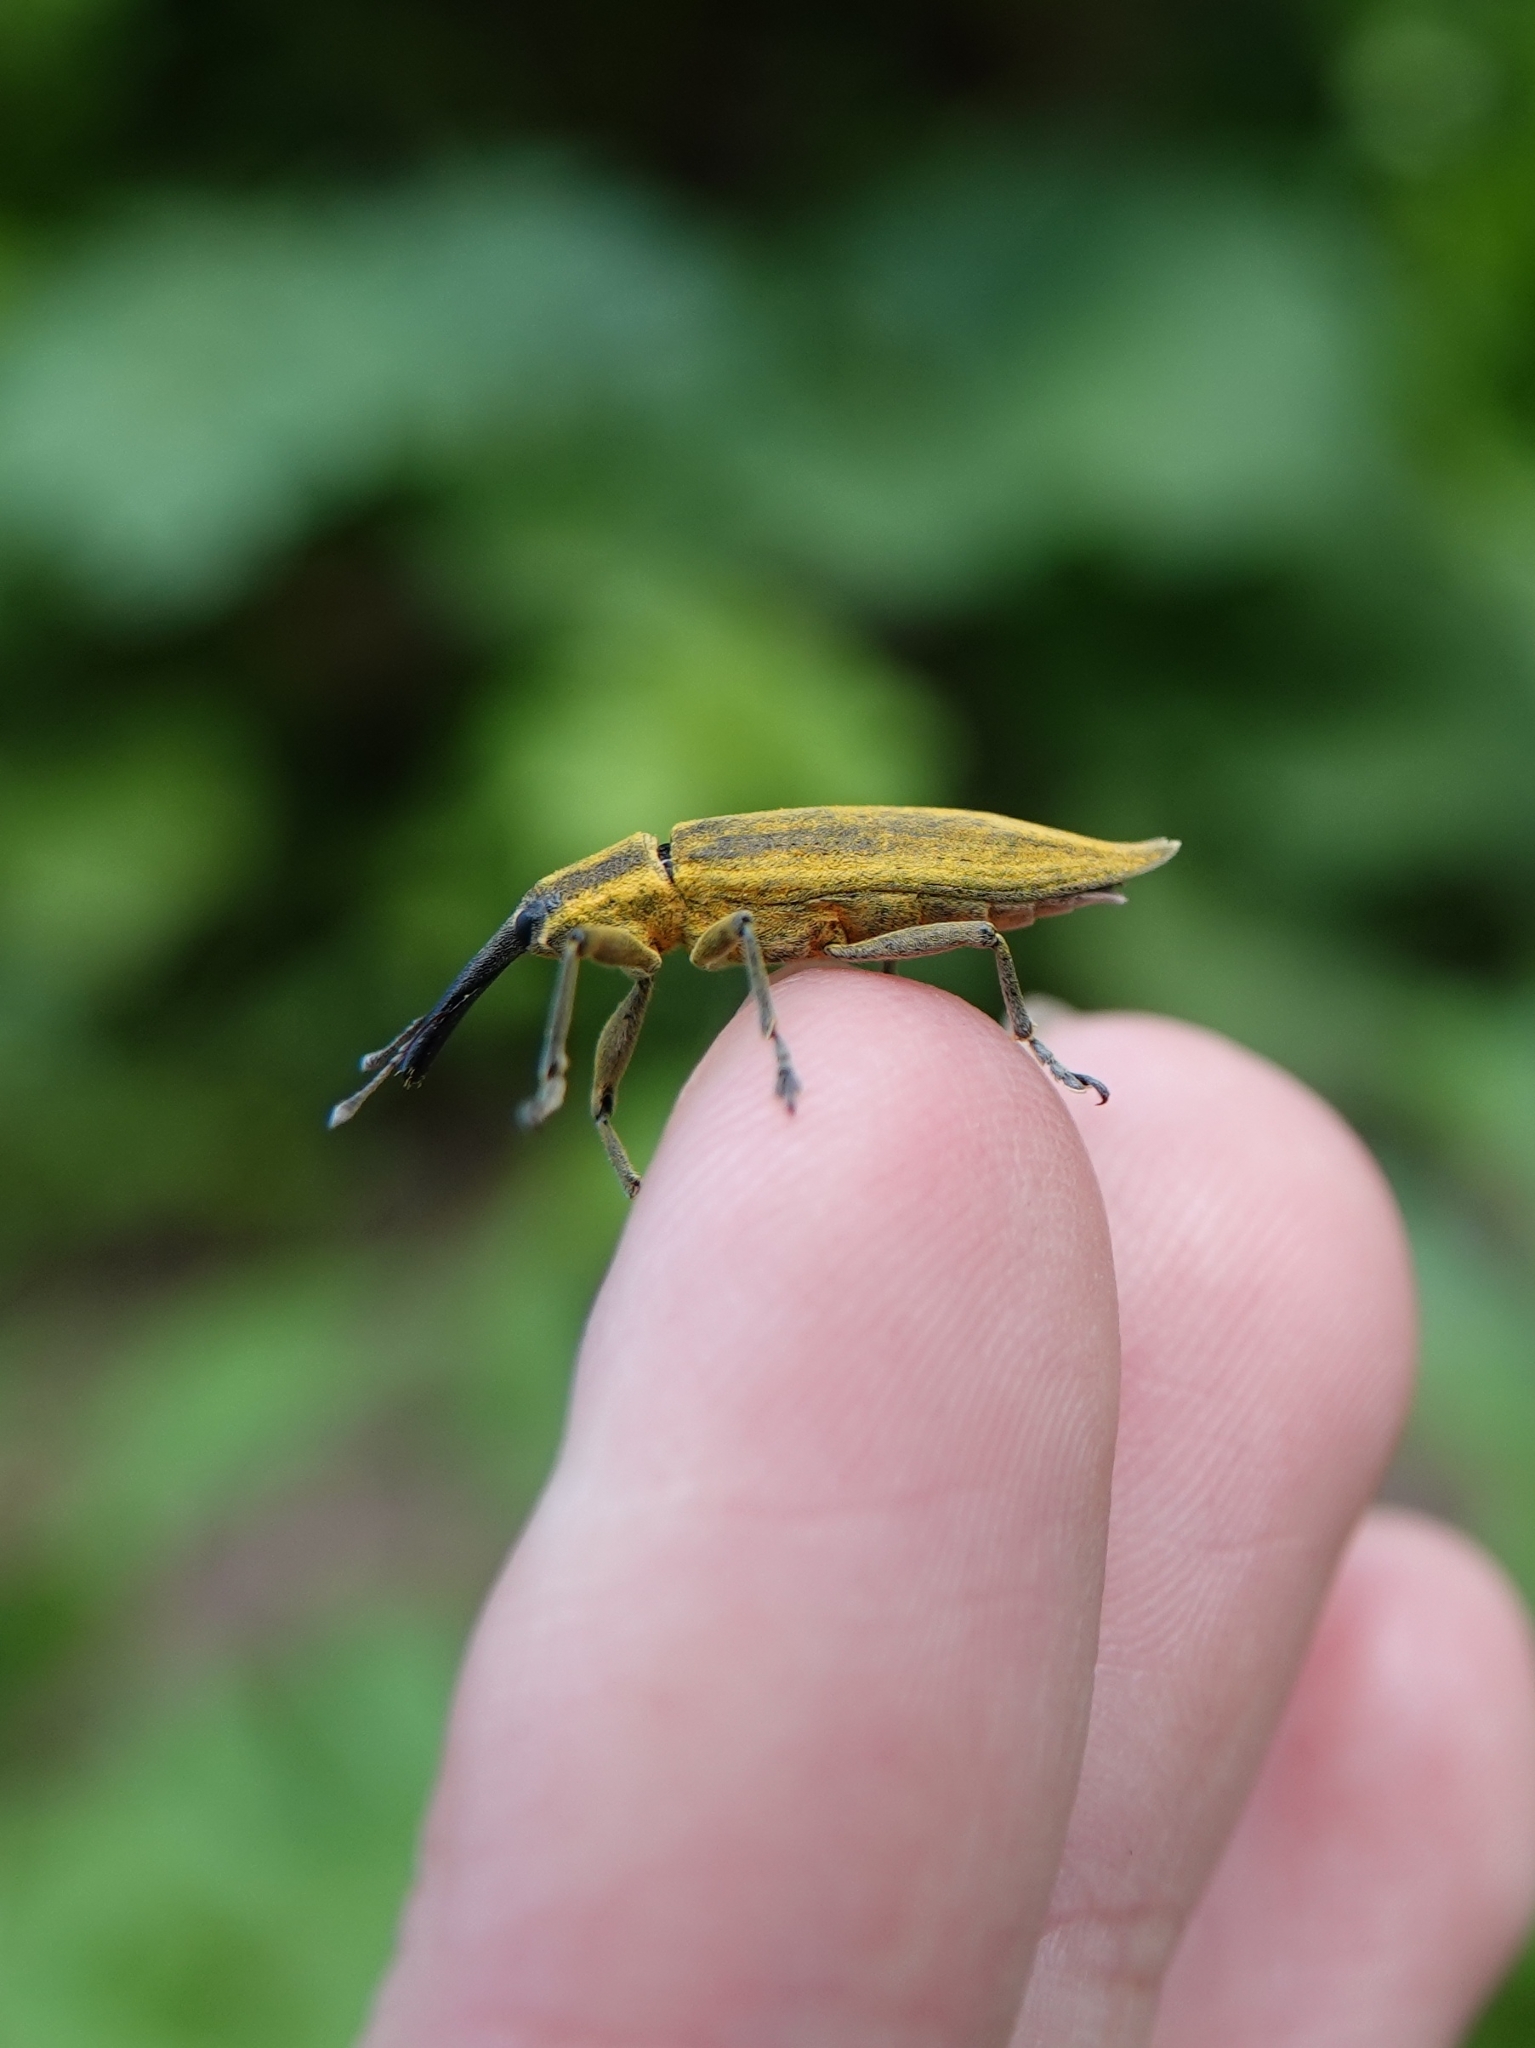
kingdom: Animalia
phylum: Arthropoda
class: Insecta
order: Coleoptera
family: Curculionidae
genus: Lixus
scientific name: Lixus iridis
